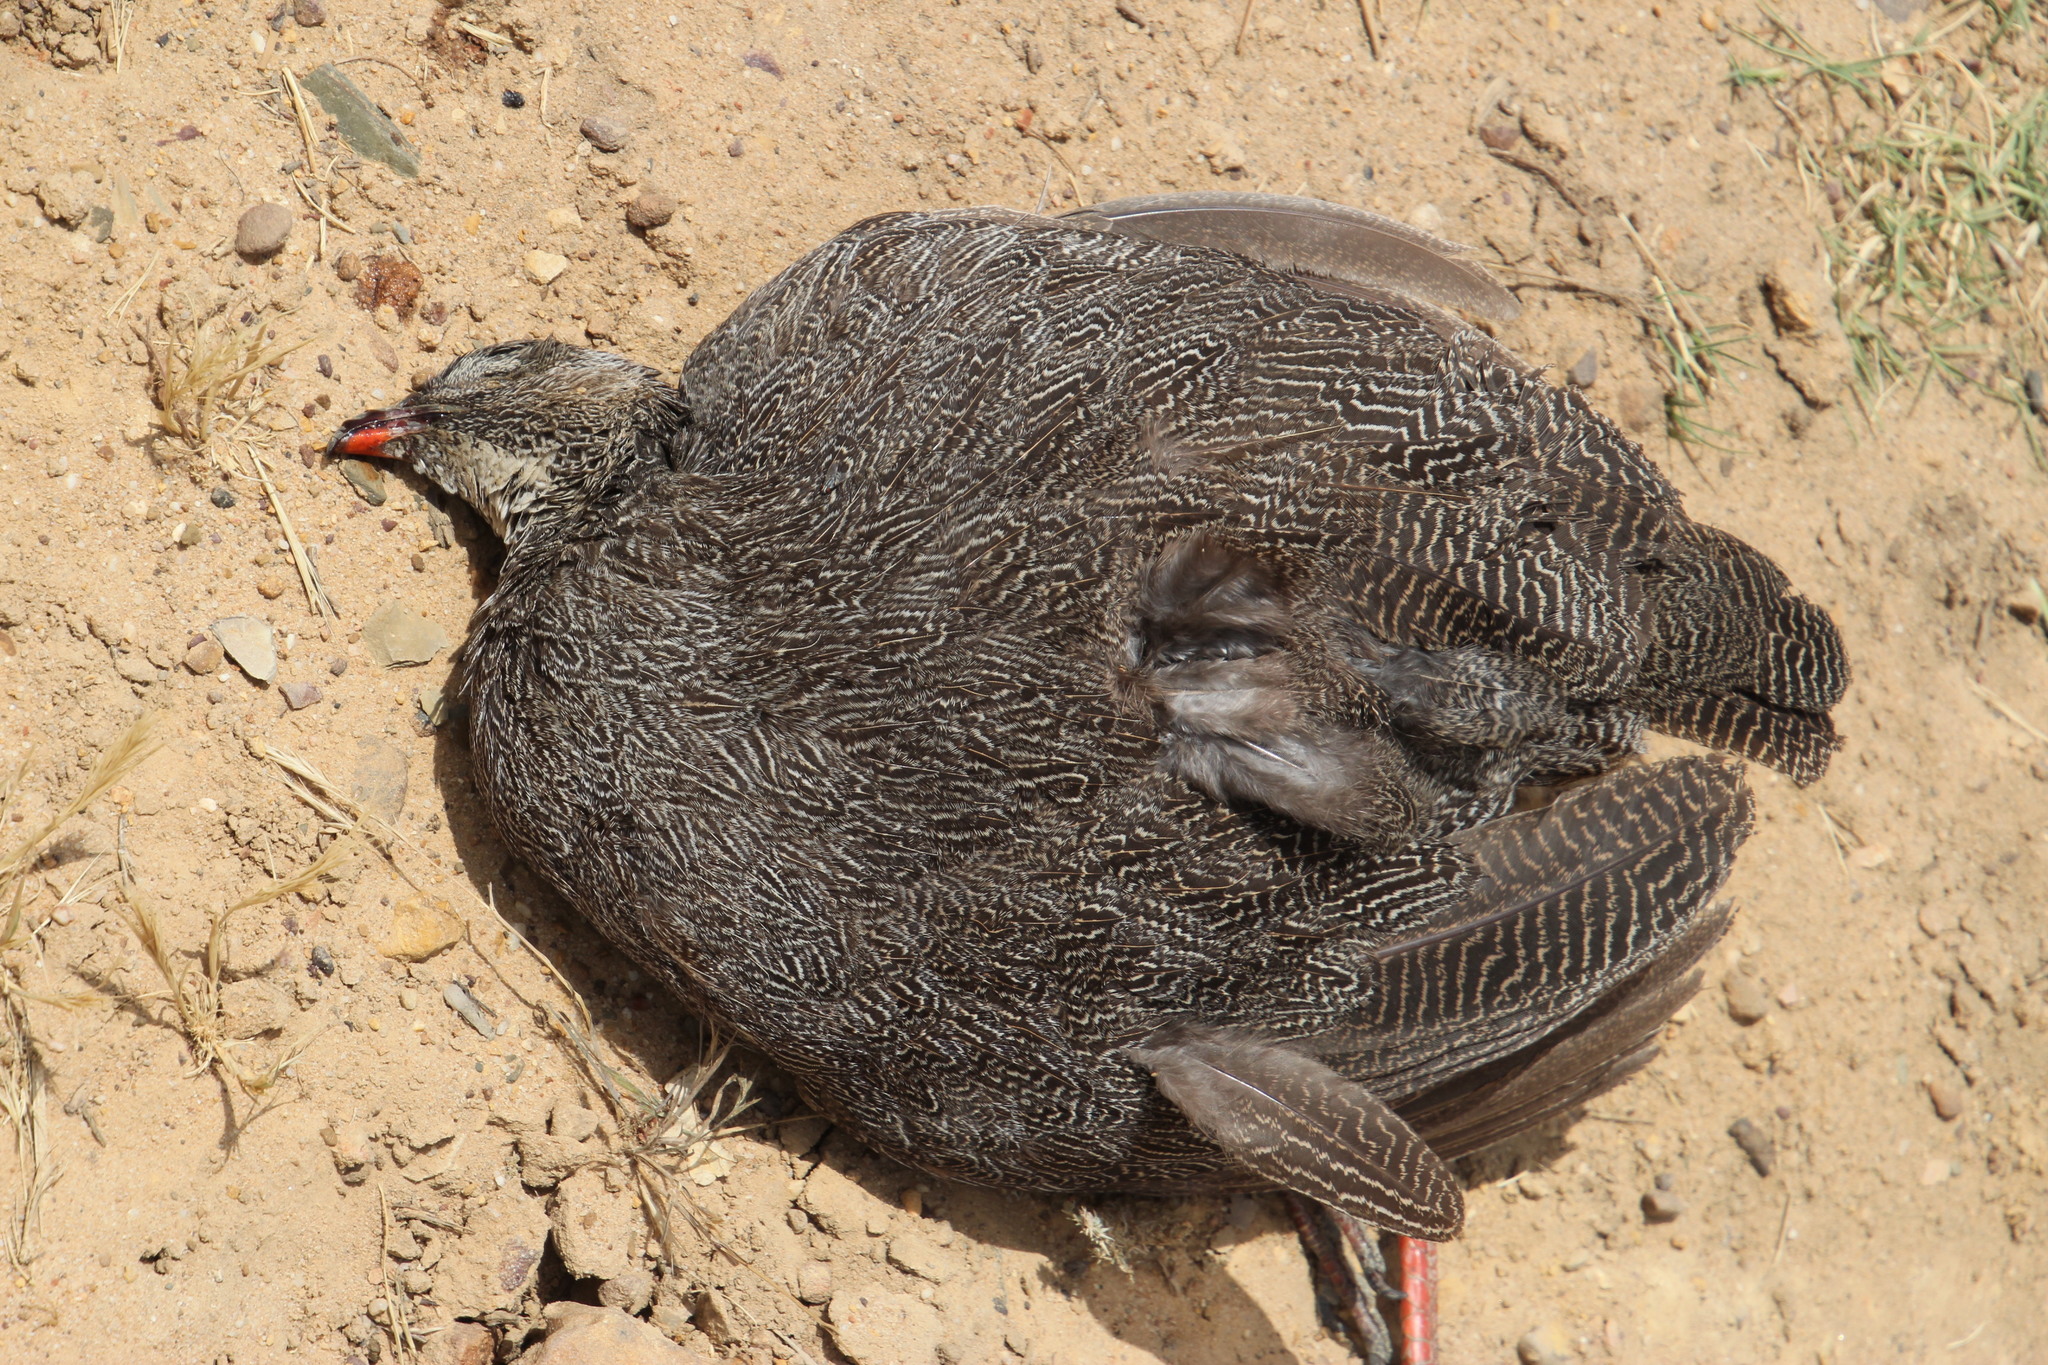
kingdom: Animalia
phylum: Chordata
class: Aves
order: Galliformes
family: Phasianidae
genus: Pternistis
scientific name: Pternistis capensis
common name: Cape spurfowl
